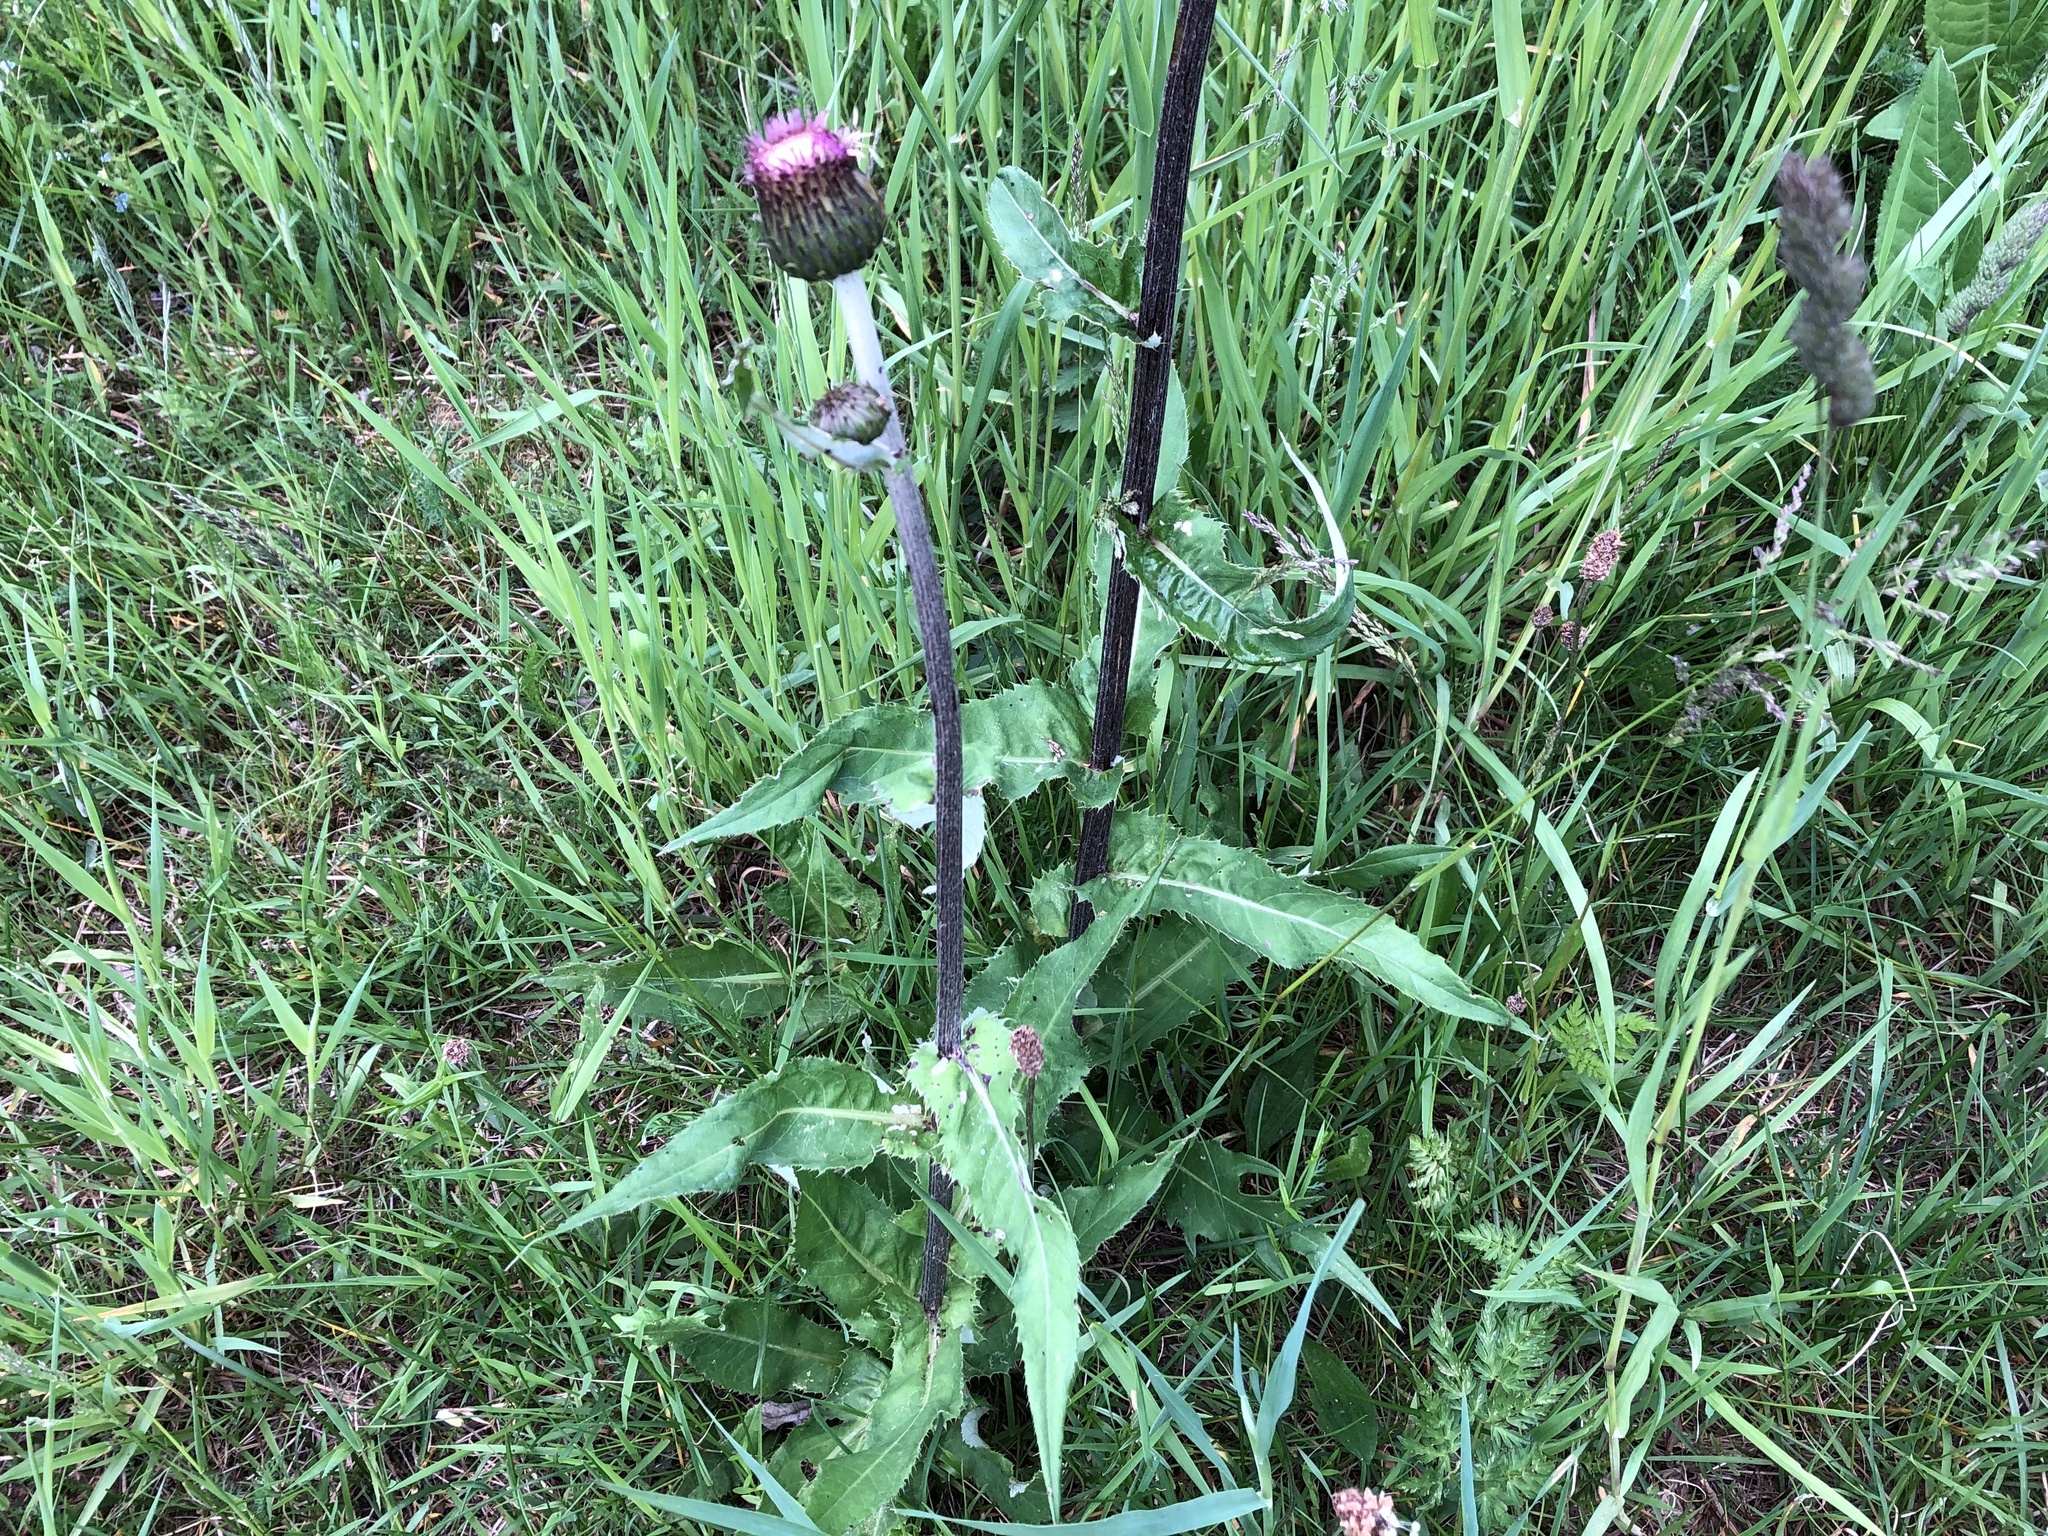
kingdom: Plantae
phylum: Tracheophyta
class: Magnoliopsida
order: Asterales
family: Asteraceae
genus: Cirsium
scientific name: Cirsium heterophyllum
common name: Melancholy thistle
